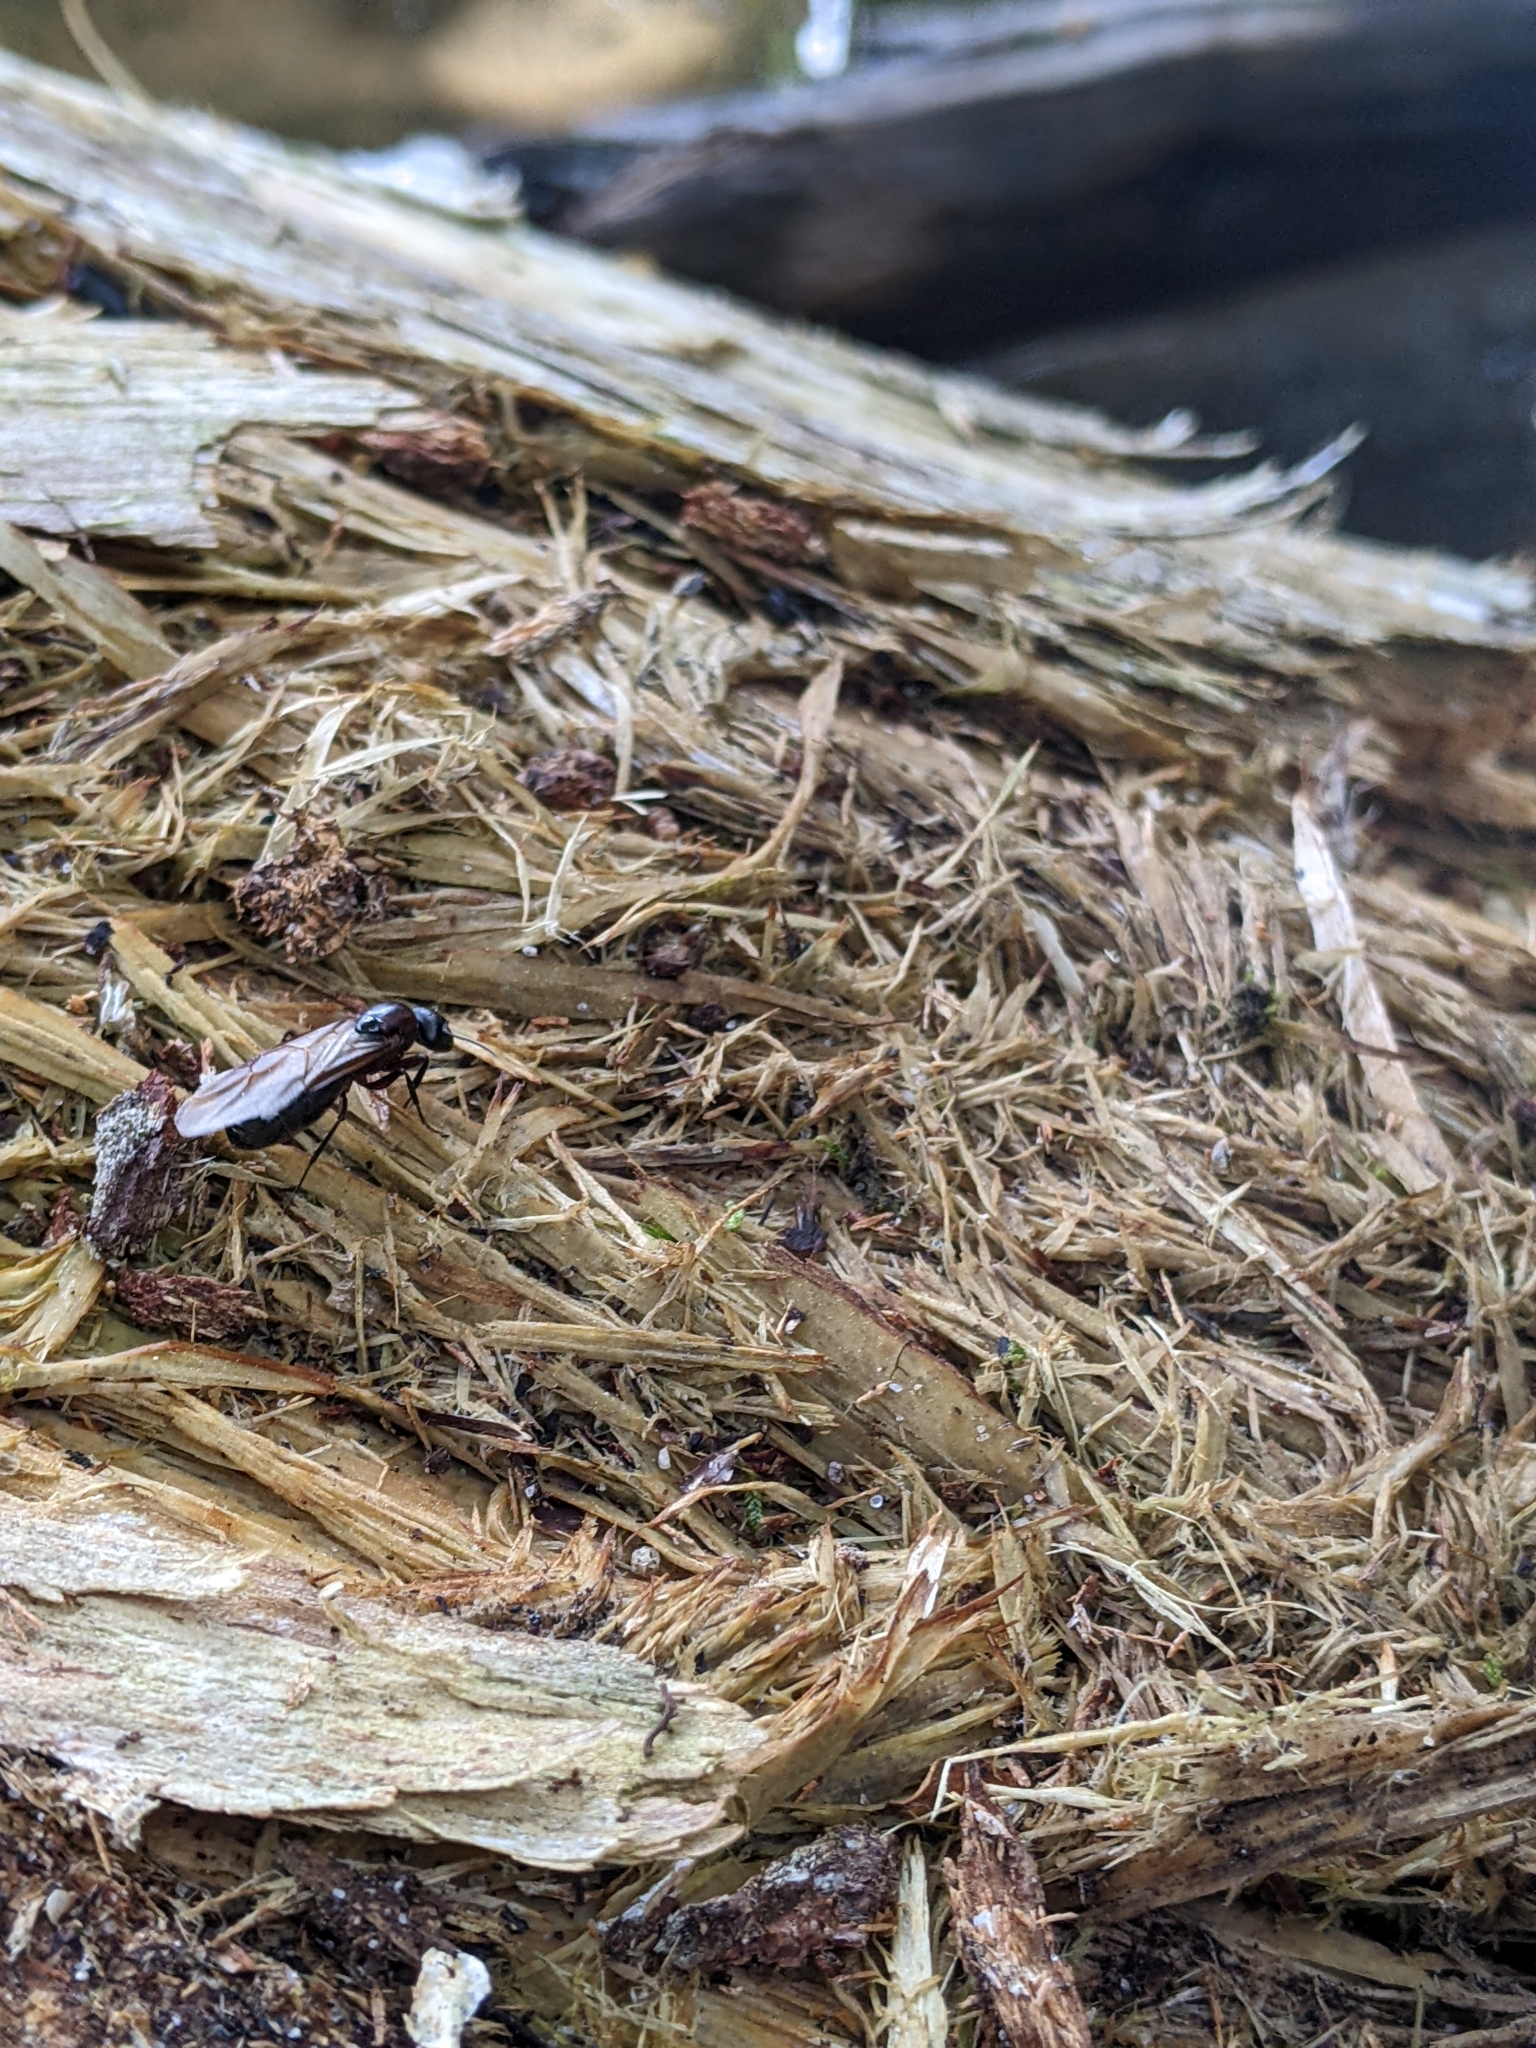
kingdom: Animalia
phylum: Arthropoda
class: Insecta
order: Hymenoptera
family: Formicidae
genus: Camponotus
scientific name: Camponotus novaeboracensis
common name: New york carpenter ant
